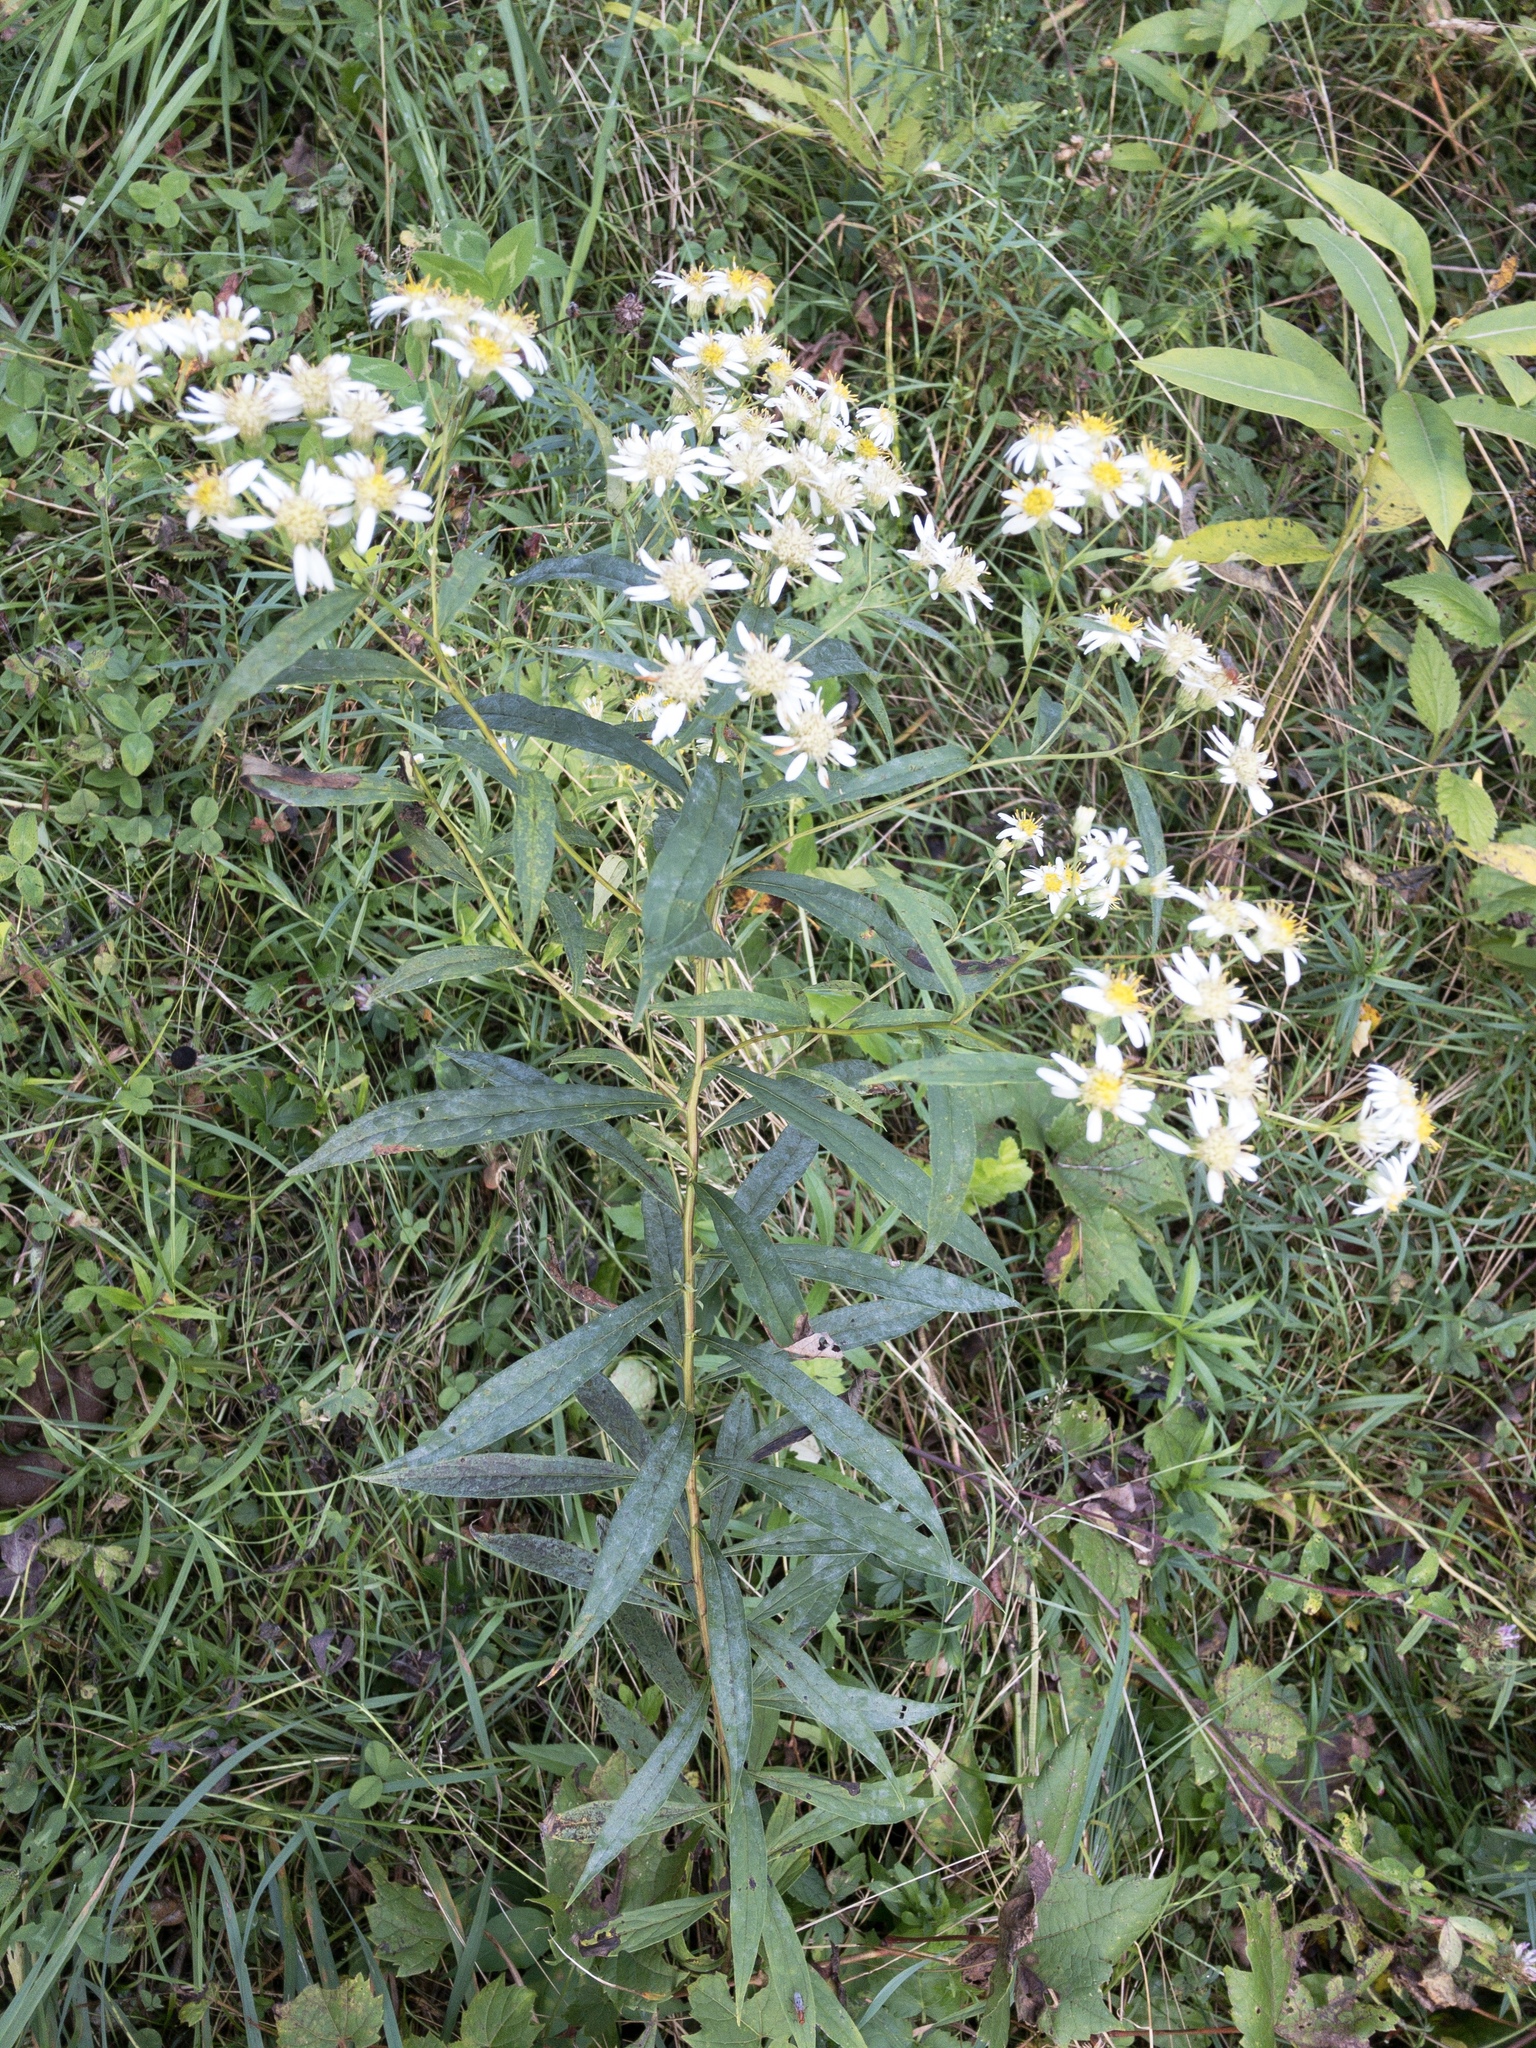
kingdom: Plantae
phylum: Tracheophyta
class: Magnoliopsida
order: Asterales
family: Asteraceae
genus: Doellingeria
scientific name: Doellingeria umbellata
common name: Flat-top white aster
